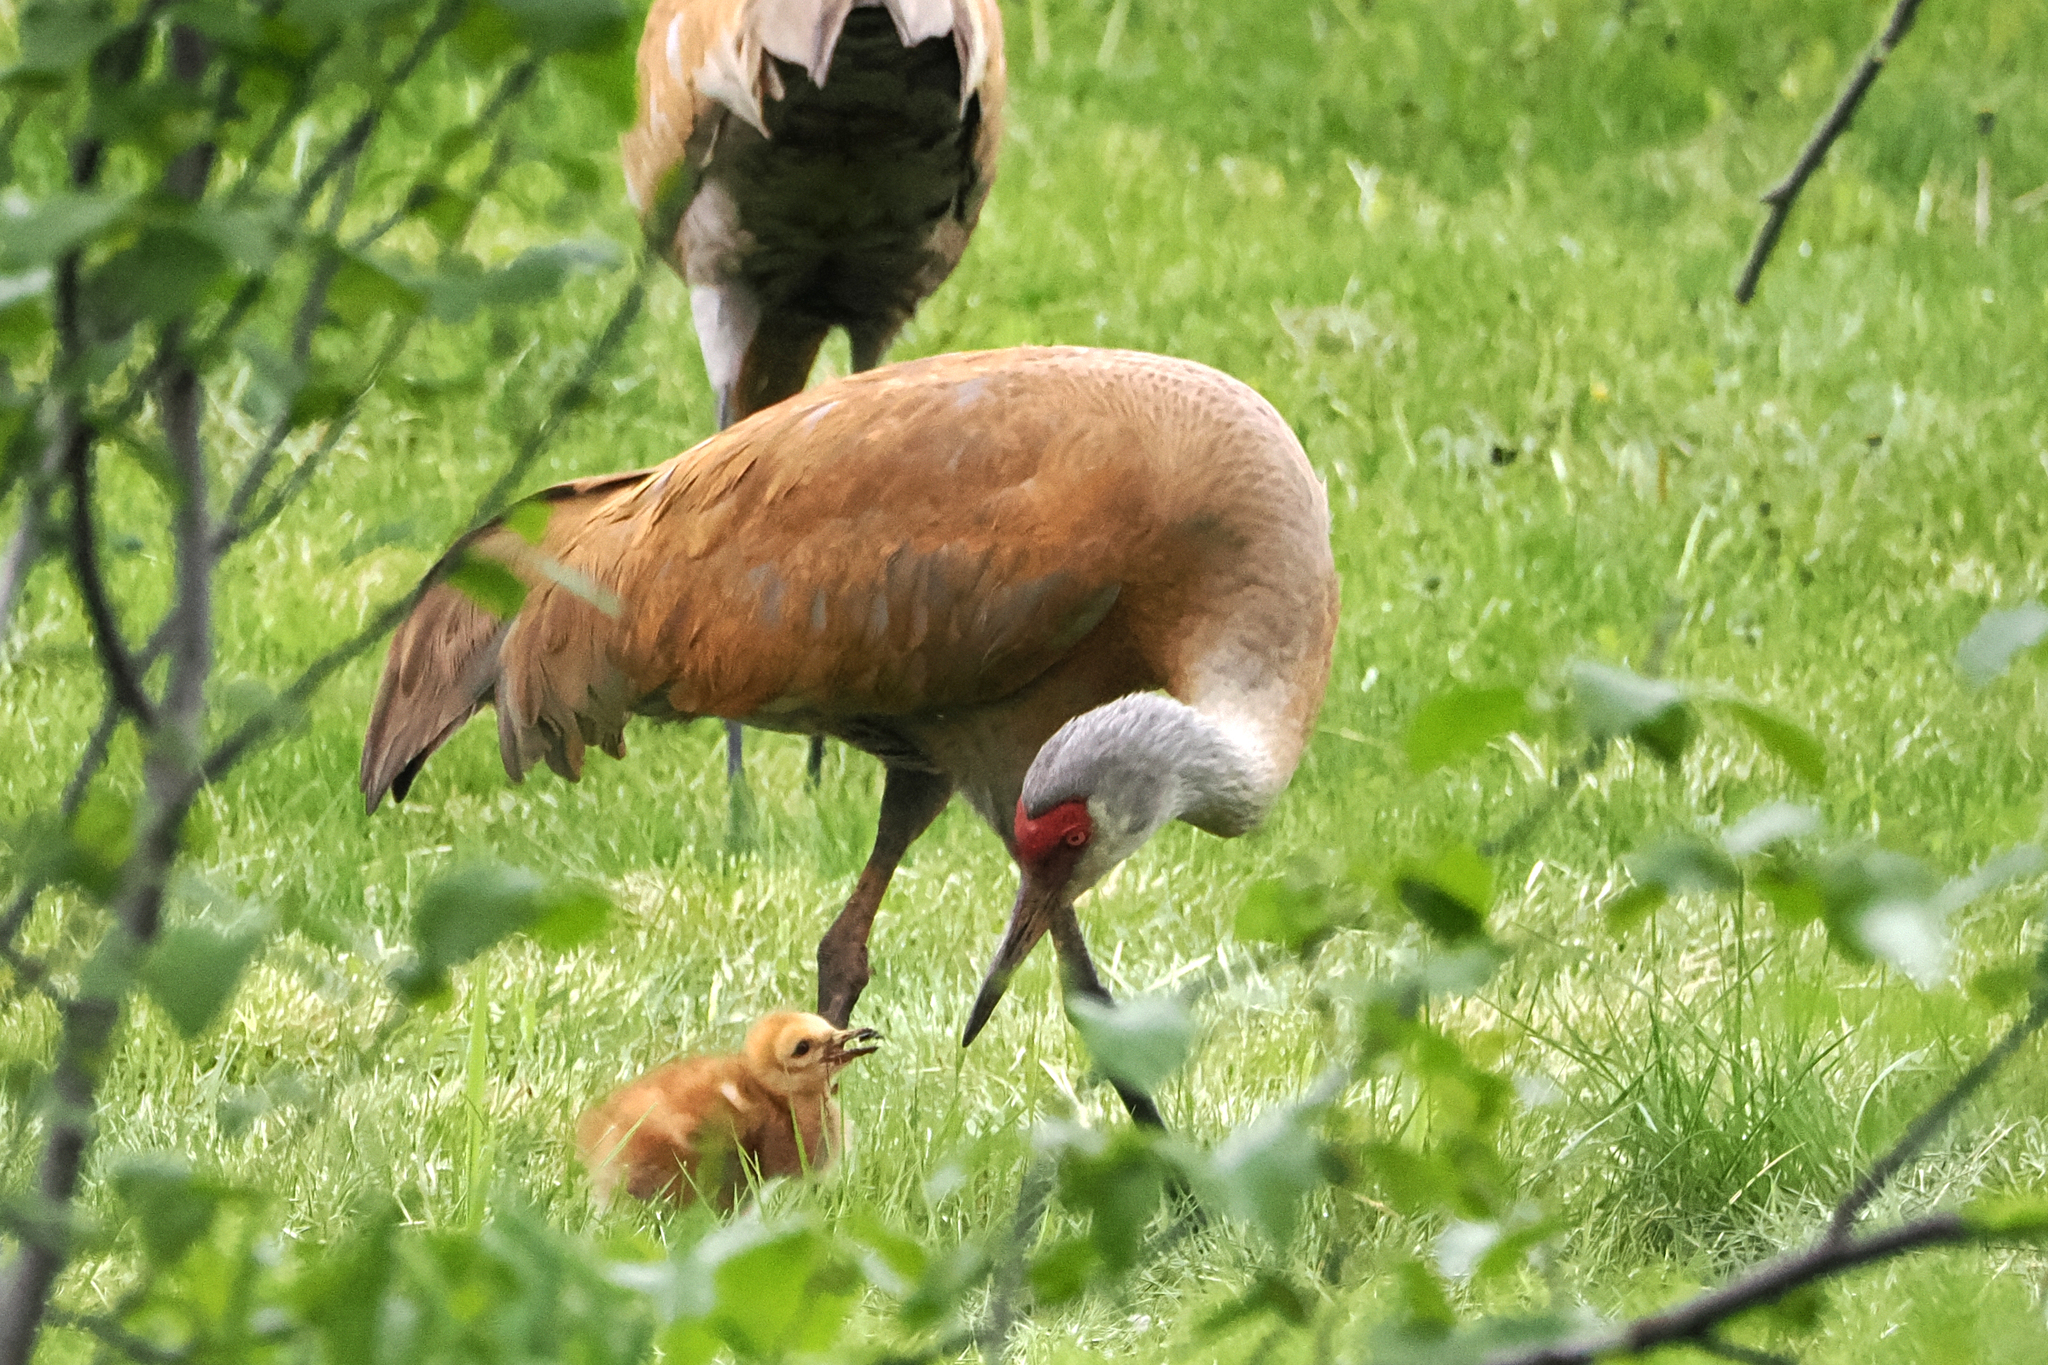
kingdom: Animalia
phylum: Chordata
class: Aves
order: Gruiformes
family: Gruidae
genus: Grus
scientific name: Grus canadensis
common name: Sandhill crane
